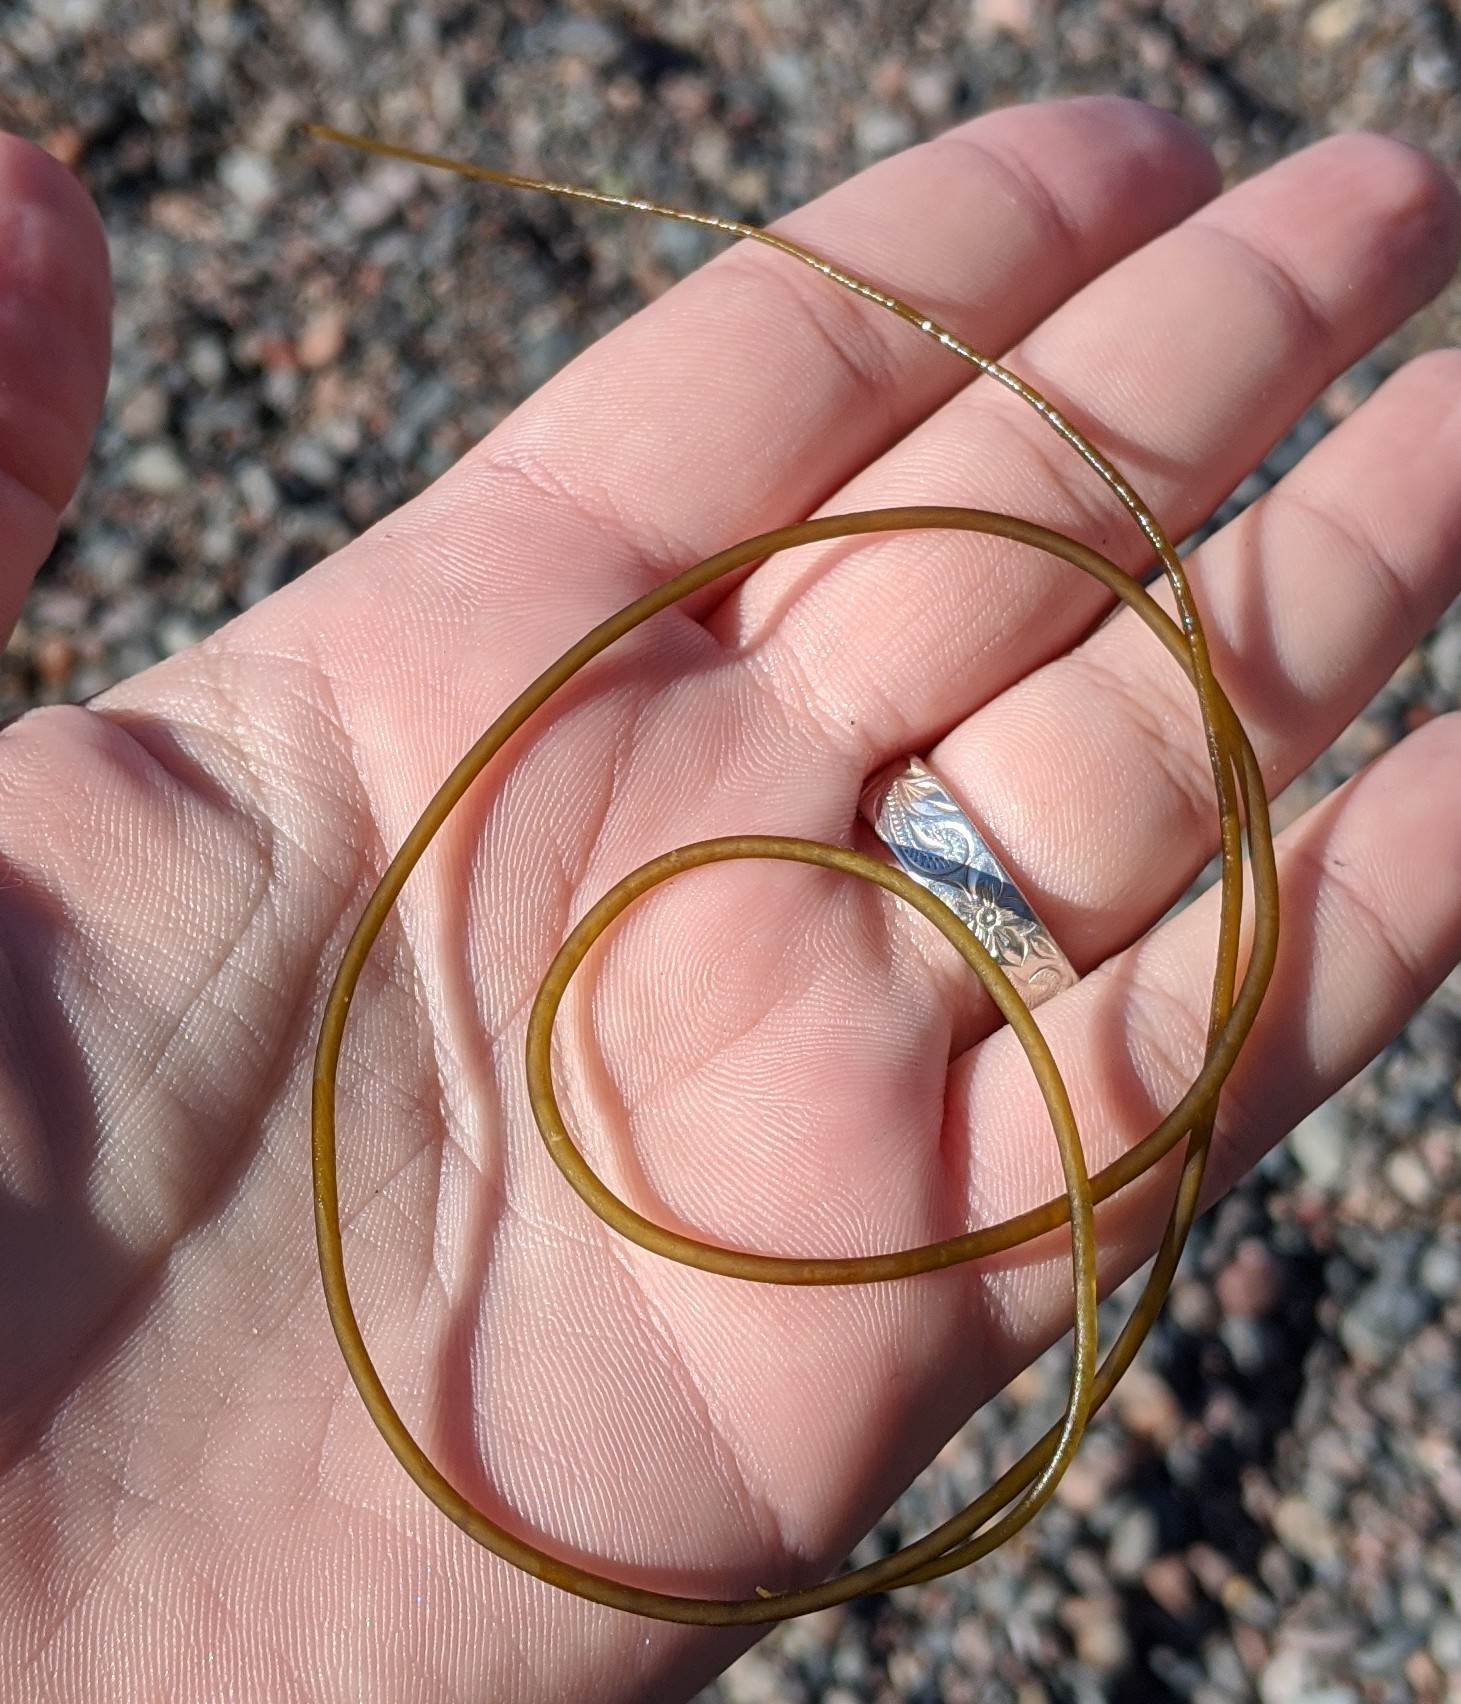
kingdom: Chromista
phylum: Ochrophyta
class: Phaeophyceae
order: Laminariales
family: Chordaceae
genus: Chorda
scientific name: Chorda filum
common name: Mermaid's tresses
